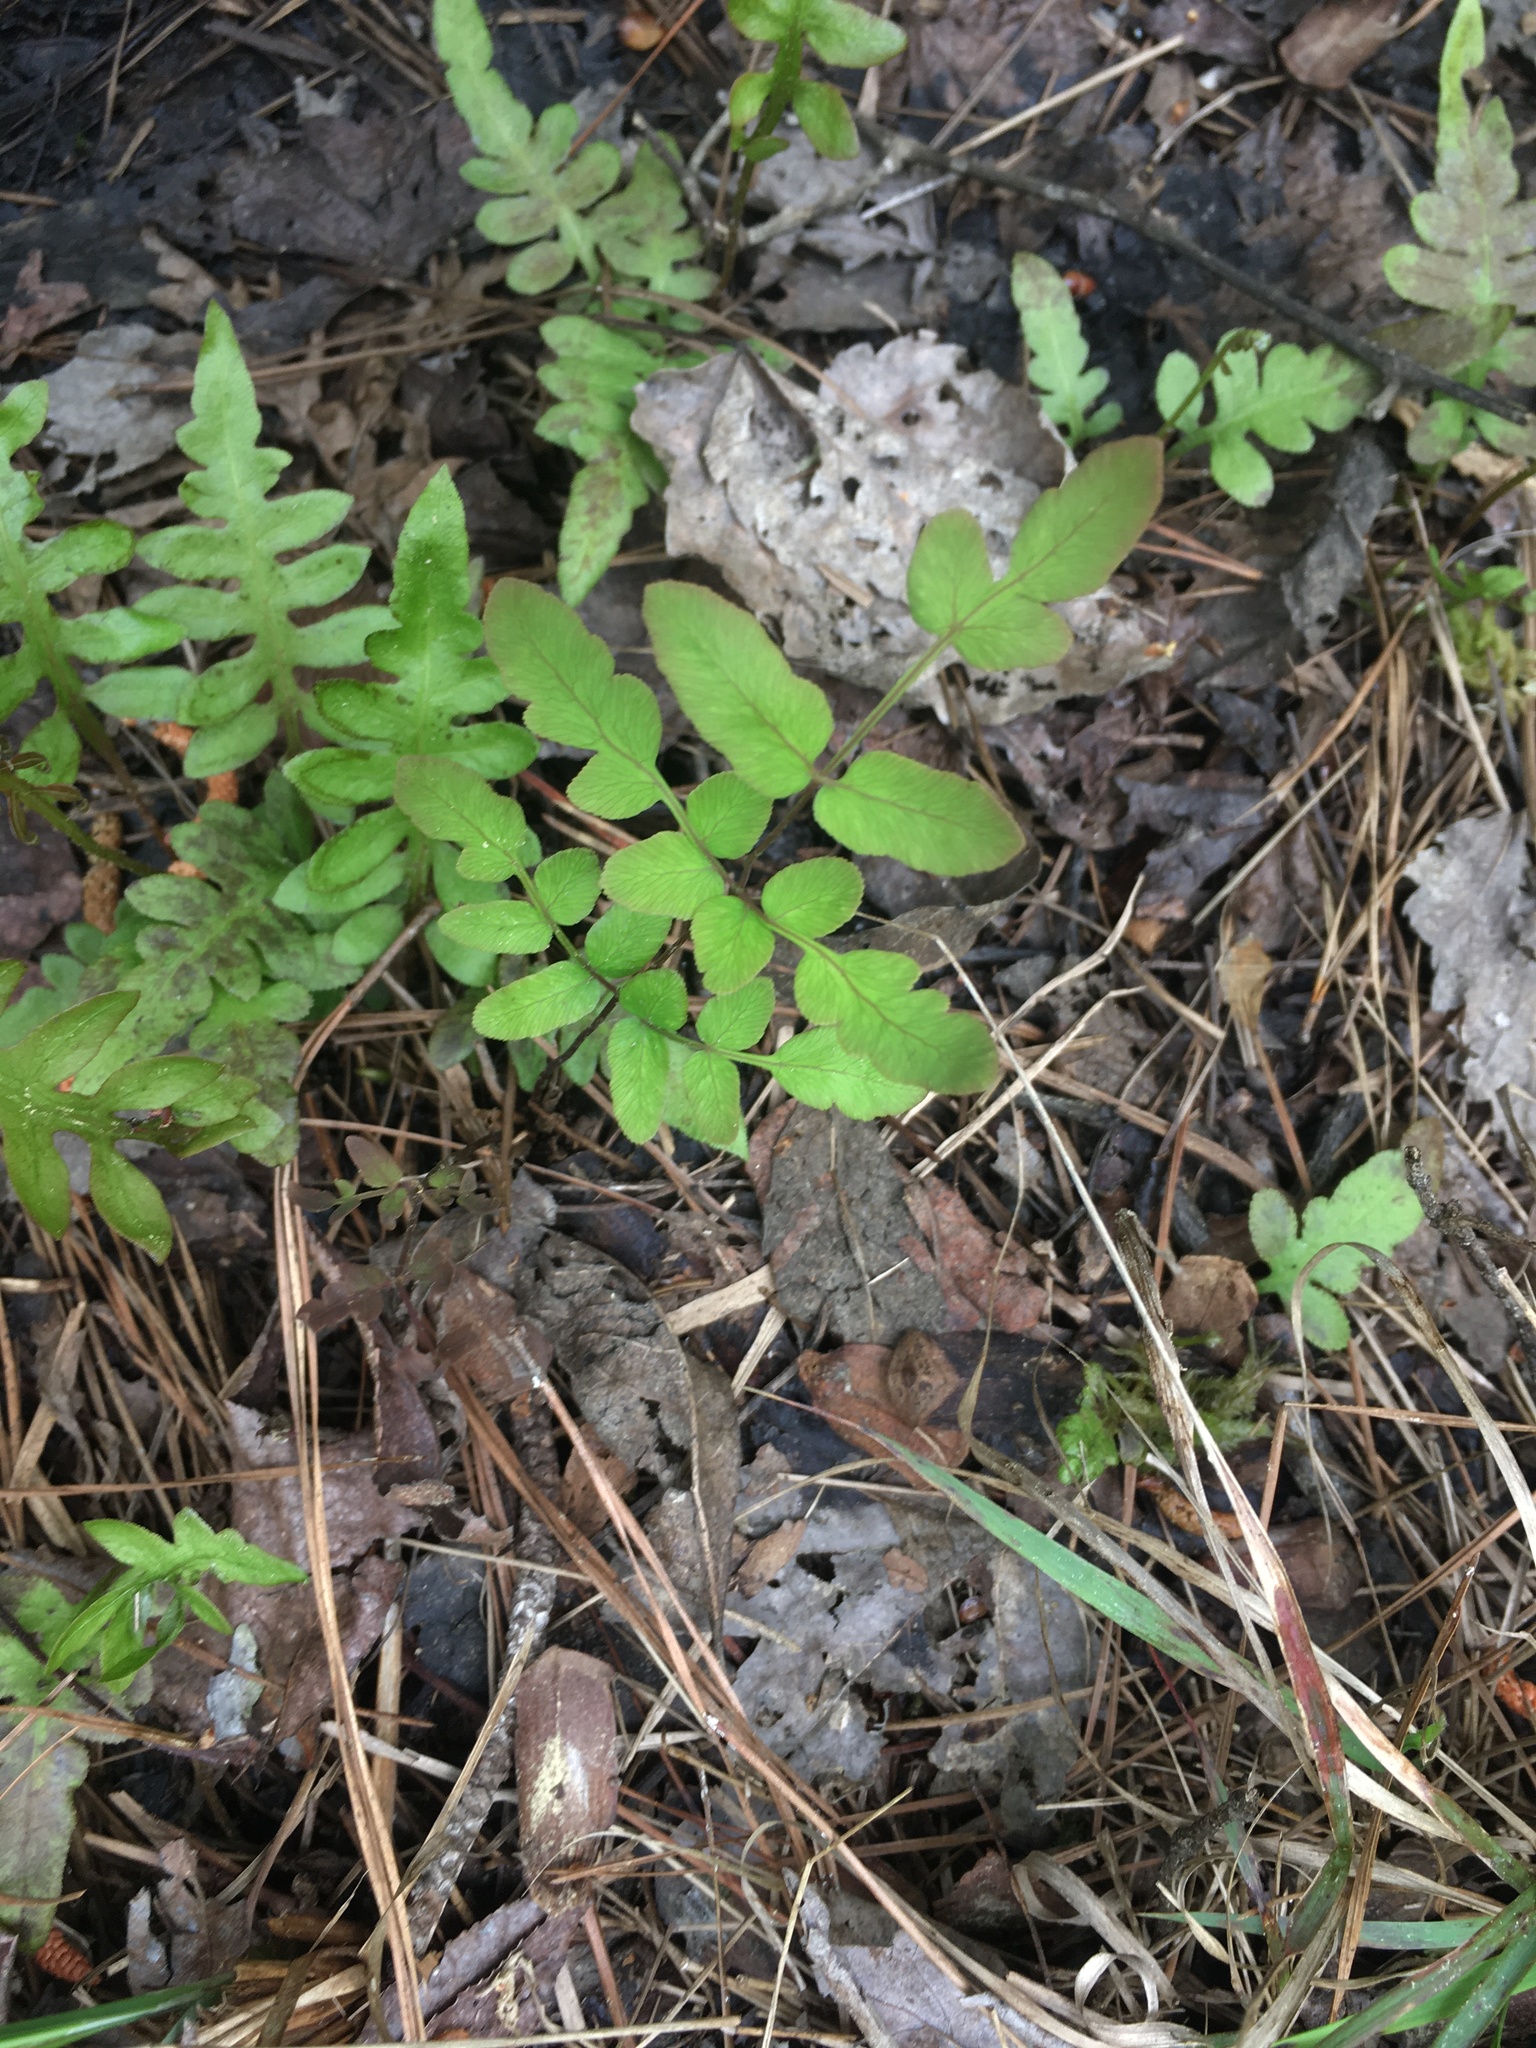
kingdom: Plantae
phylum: Tracheophyta
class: Polypodiopsida
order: Osmundales
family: Osmundaceae
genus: Osmunda
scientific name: Osmunda spectabilis
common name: American royal fern
